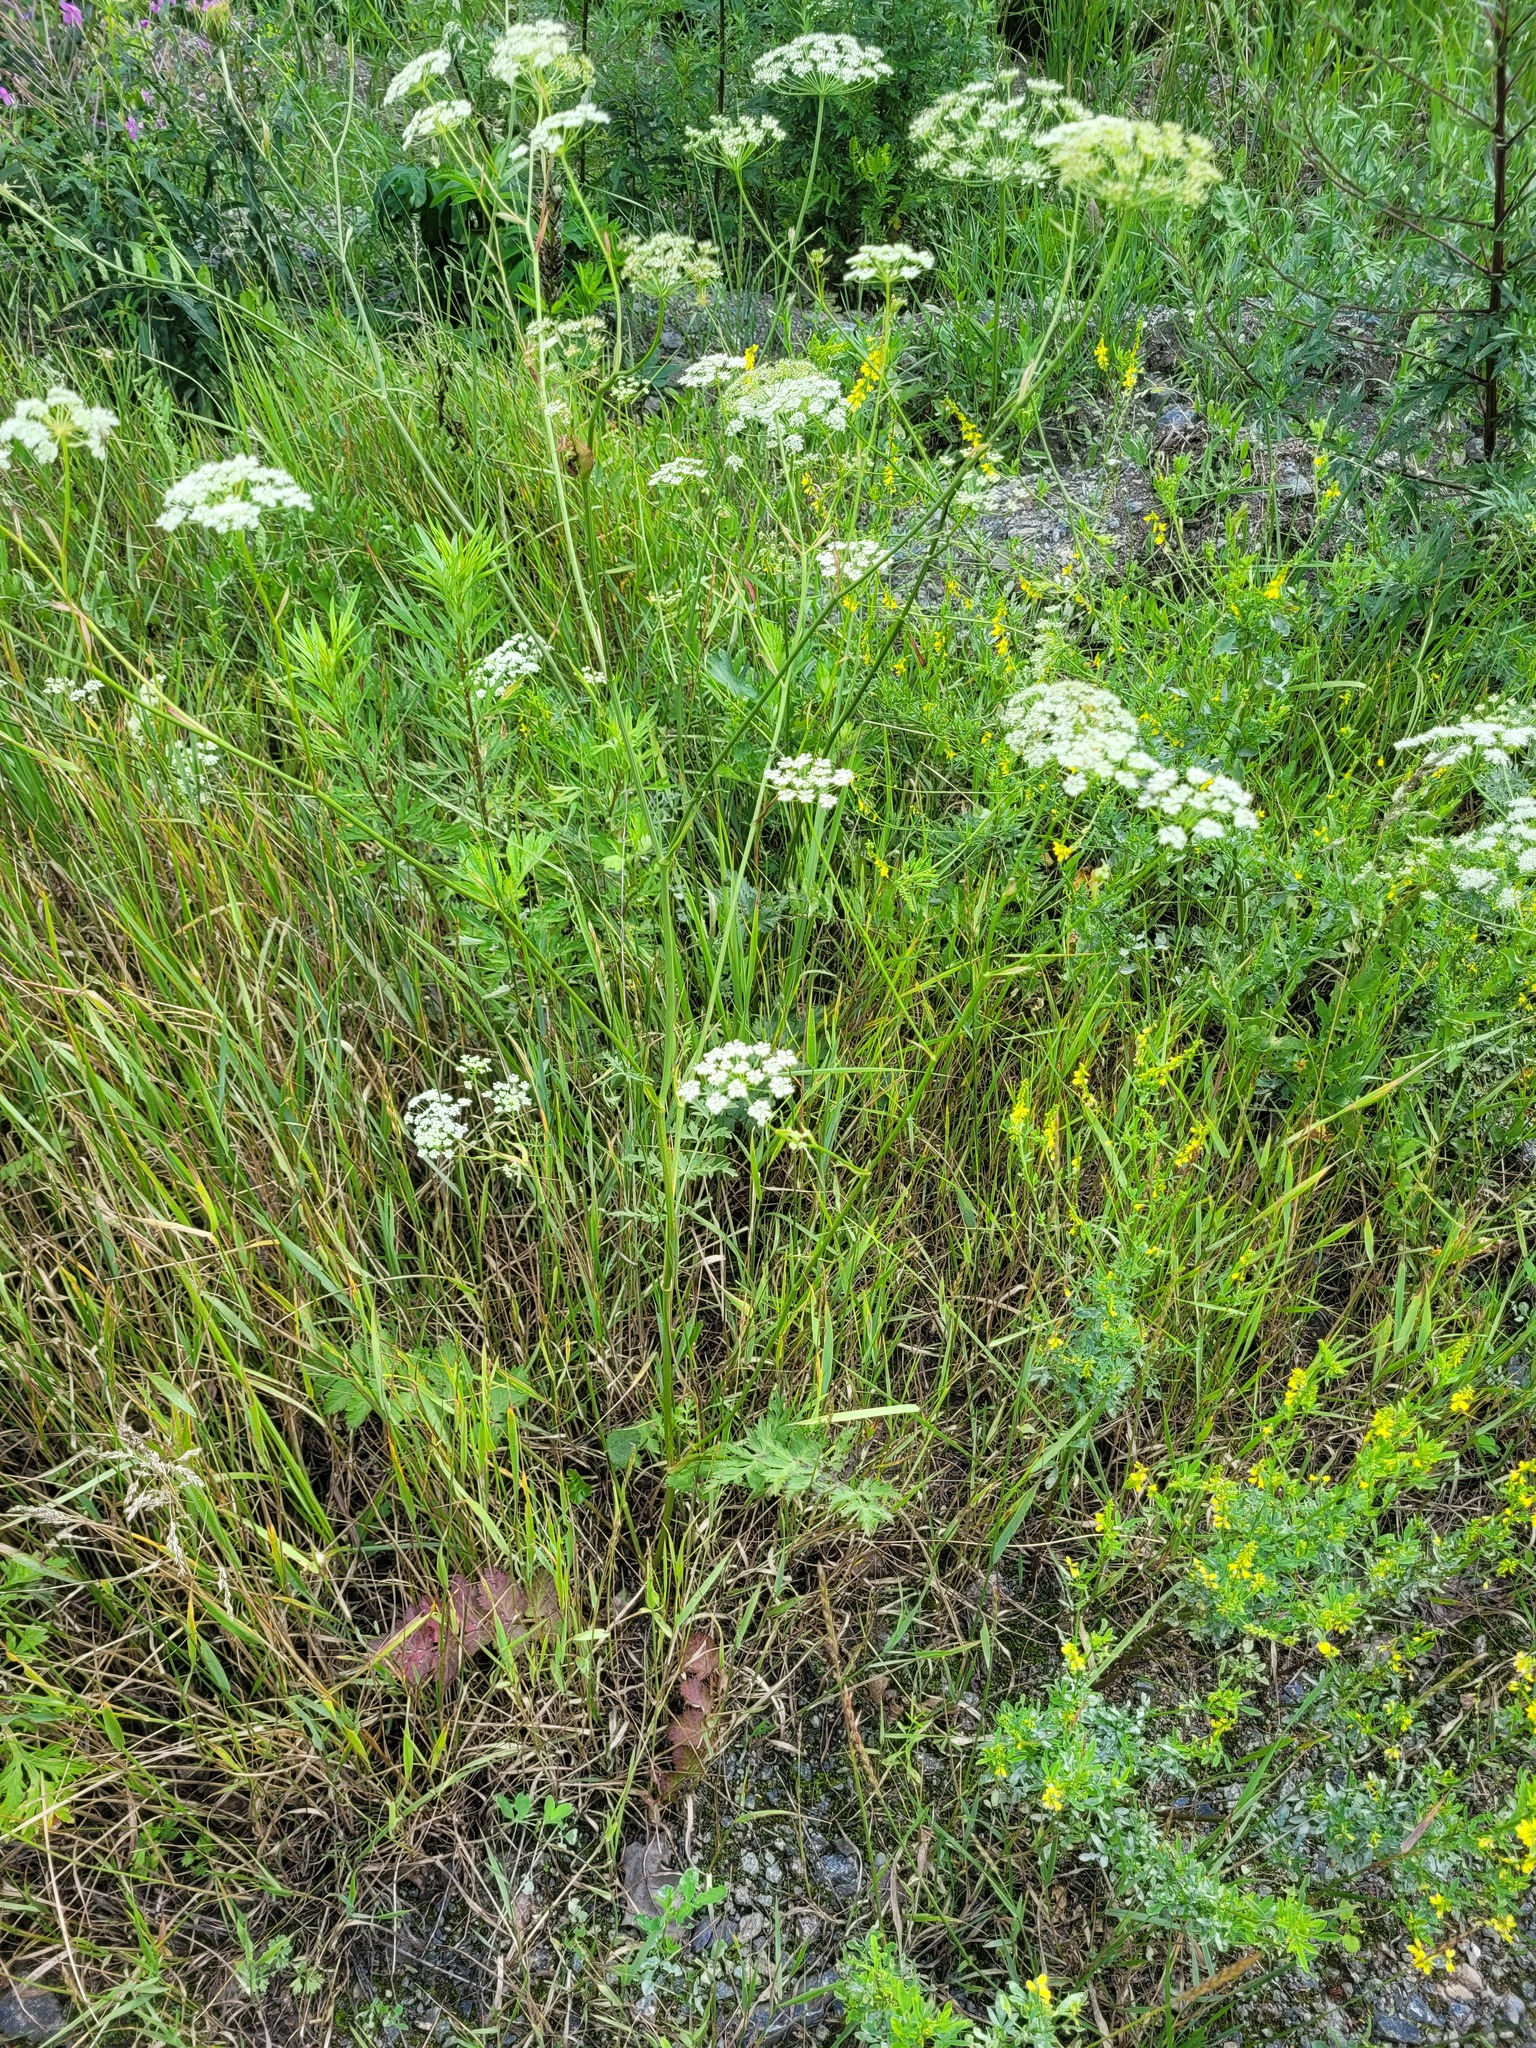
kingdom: Plantae
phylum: Tracheophyta
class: Magnoliopsida
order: Apiales
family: Apiaceae
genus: Pimpinella
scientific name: Pimpinella saxifraga
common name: Burnet-saxifrage
